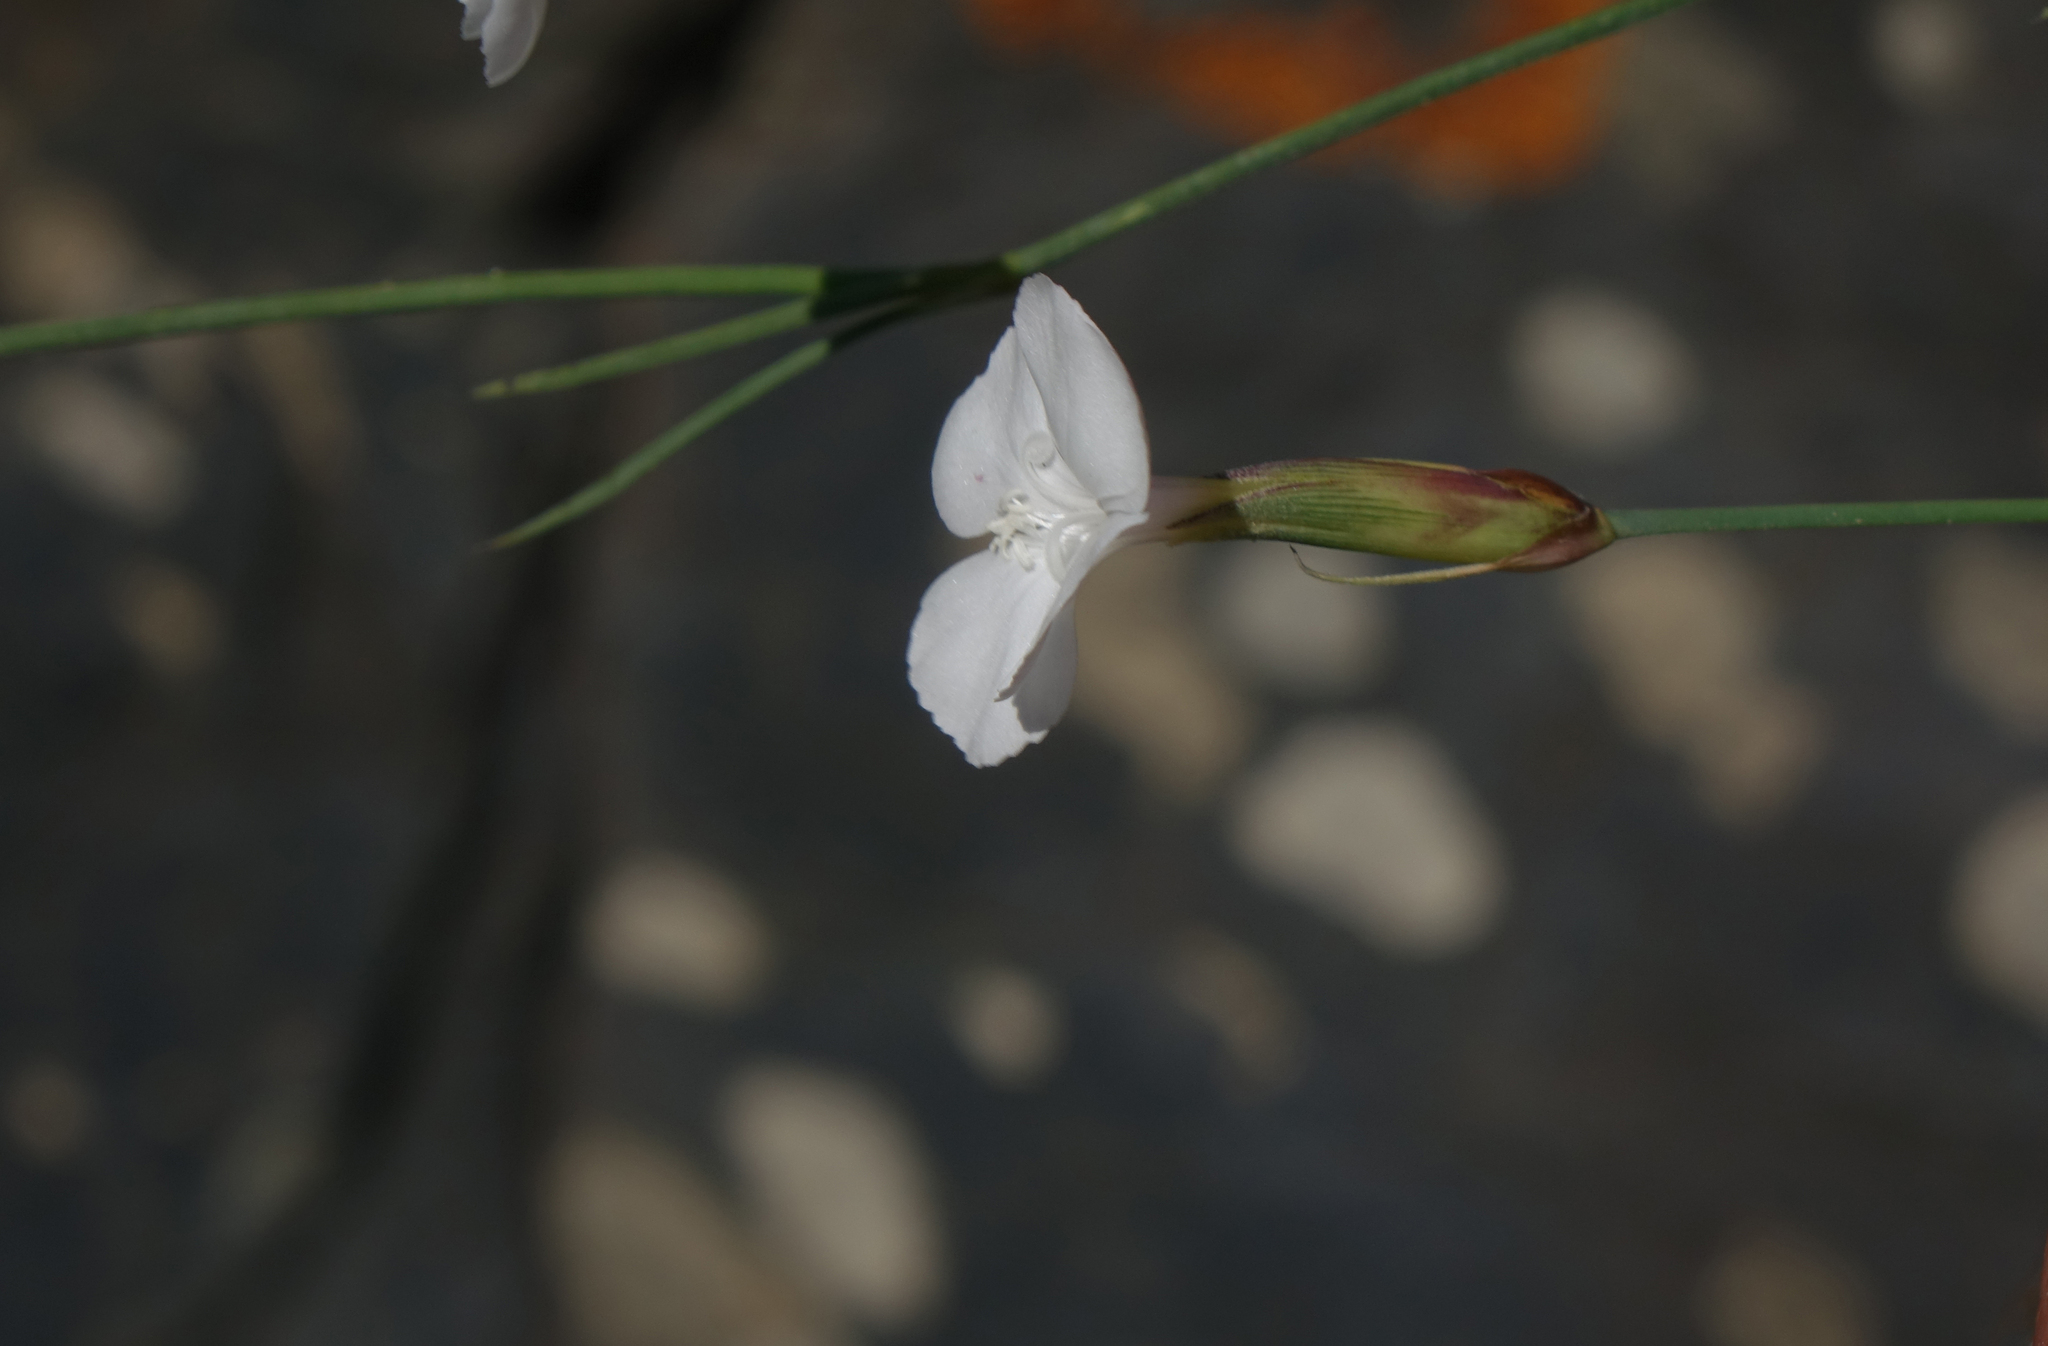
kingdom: Plantae
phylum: Tracheophyta
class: Magnoliopsida
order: Caryophyllales
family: Caryophyllaceae
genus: Dianthus
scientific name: Dianthus cretaceus
